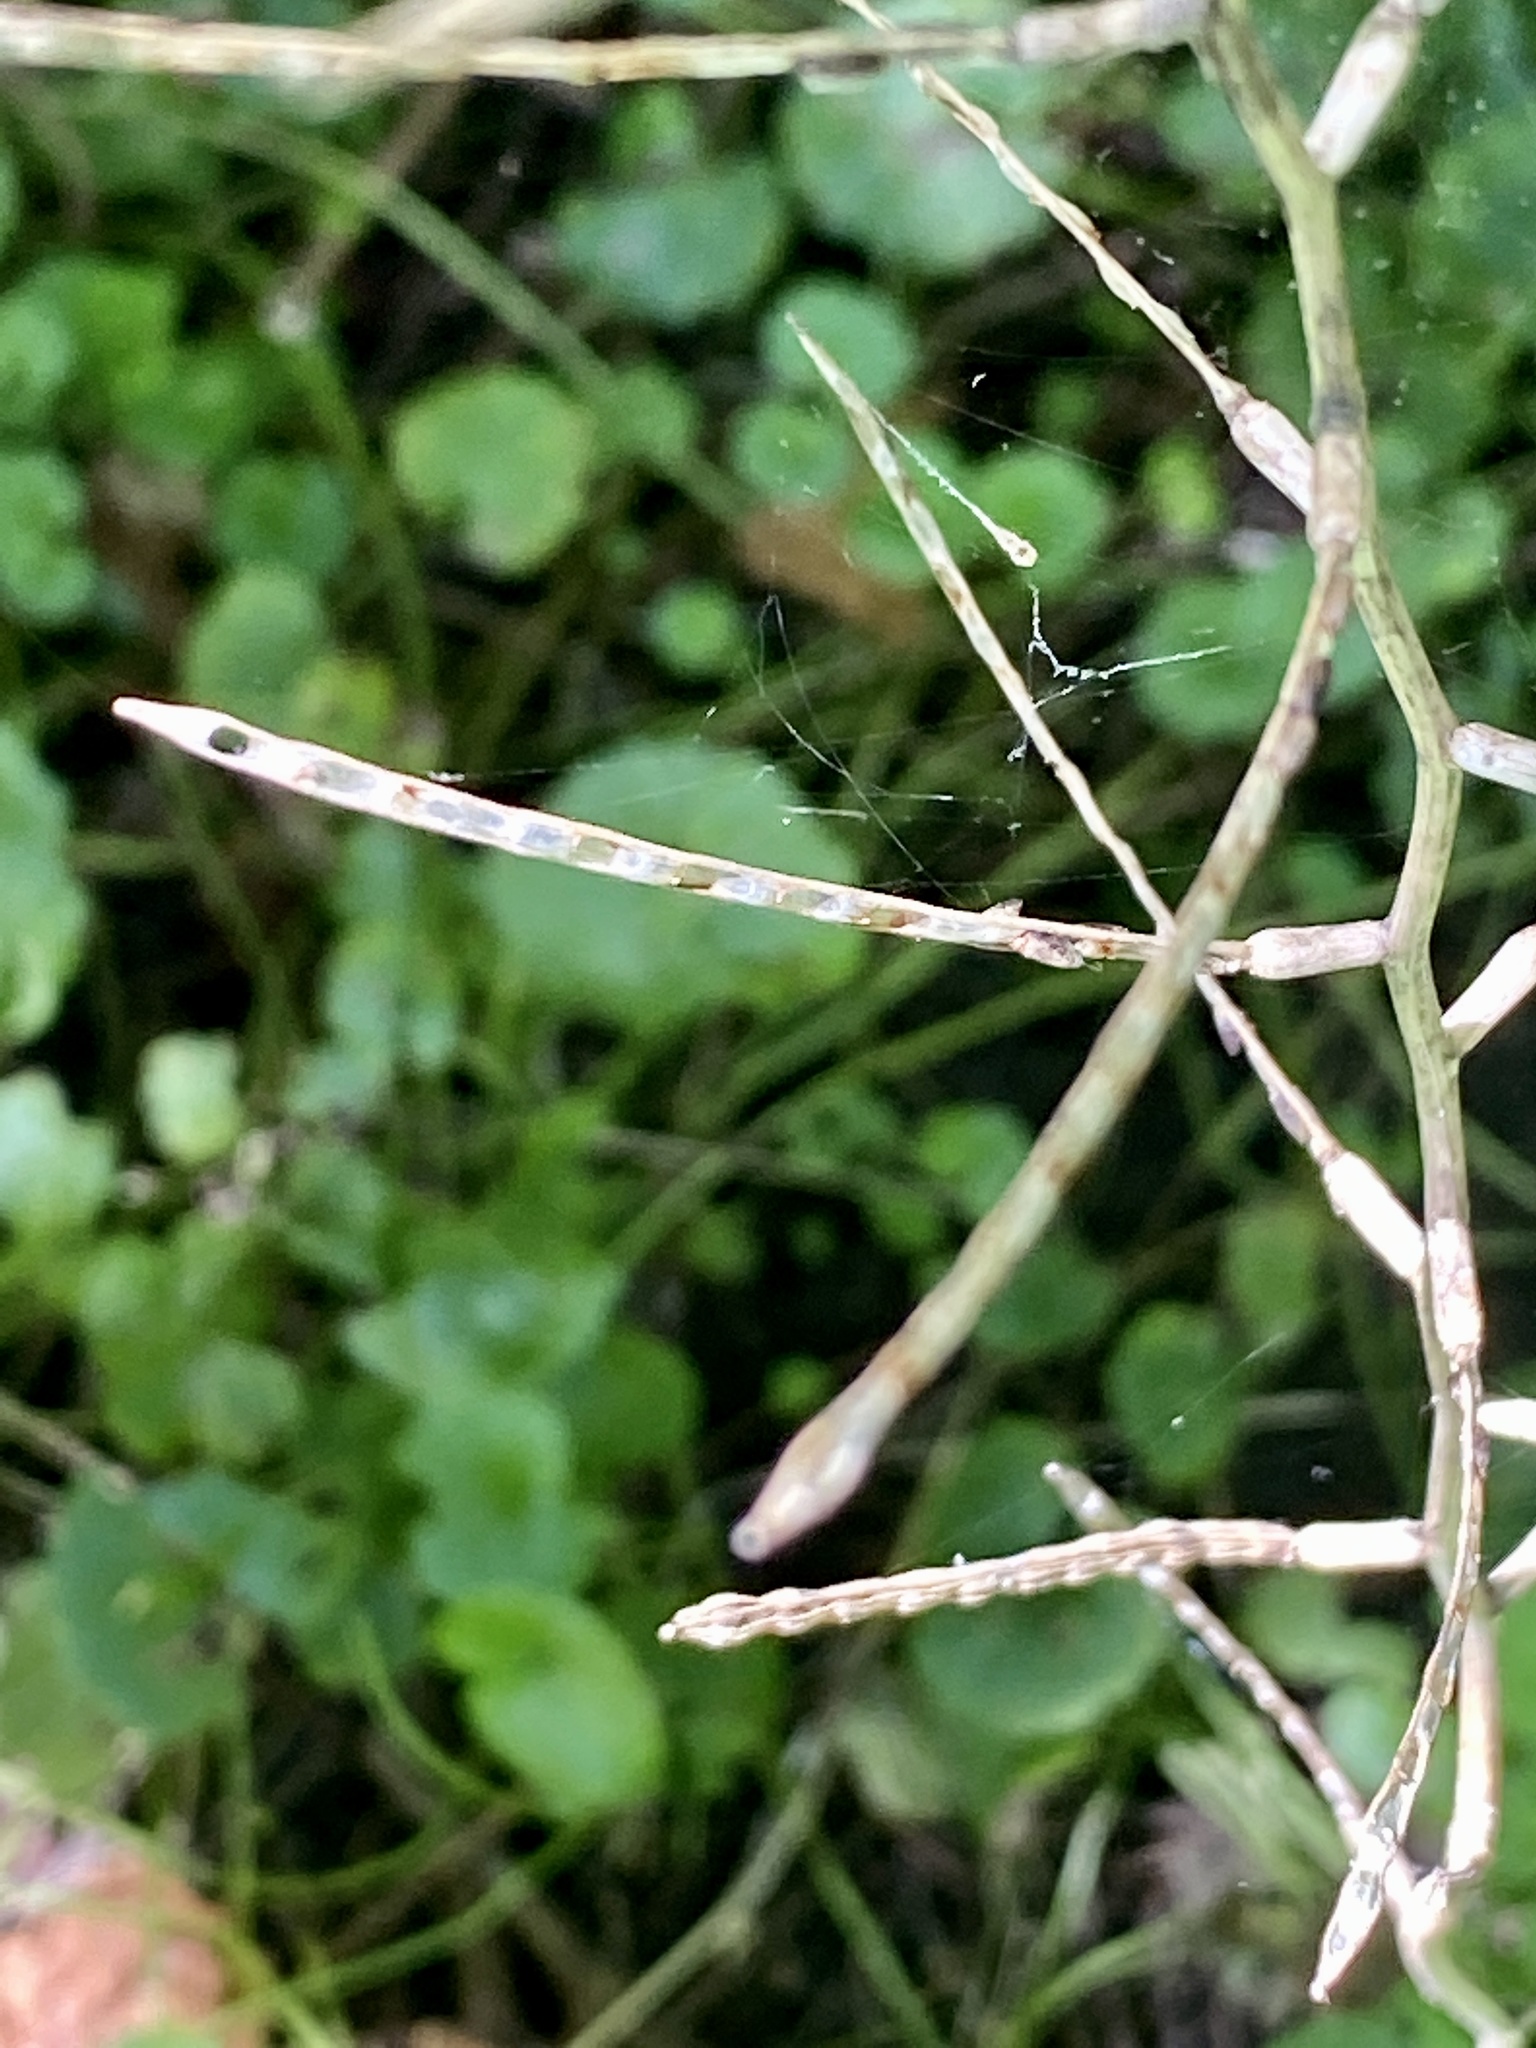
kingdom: Plantae
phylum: Tracheophyta
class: Magnoliopsida
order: Brassicales
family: Brassicaceae
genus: Alliaria
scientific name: Alliaria petiolata
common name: Garlic mustard
